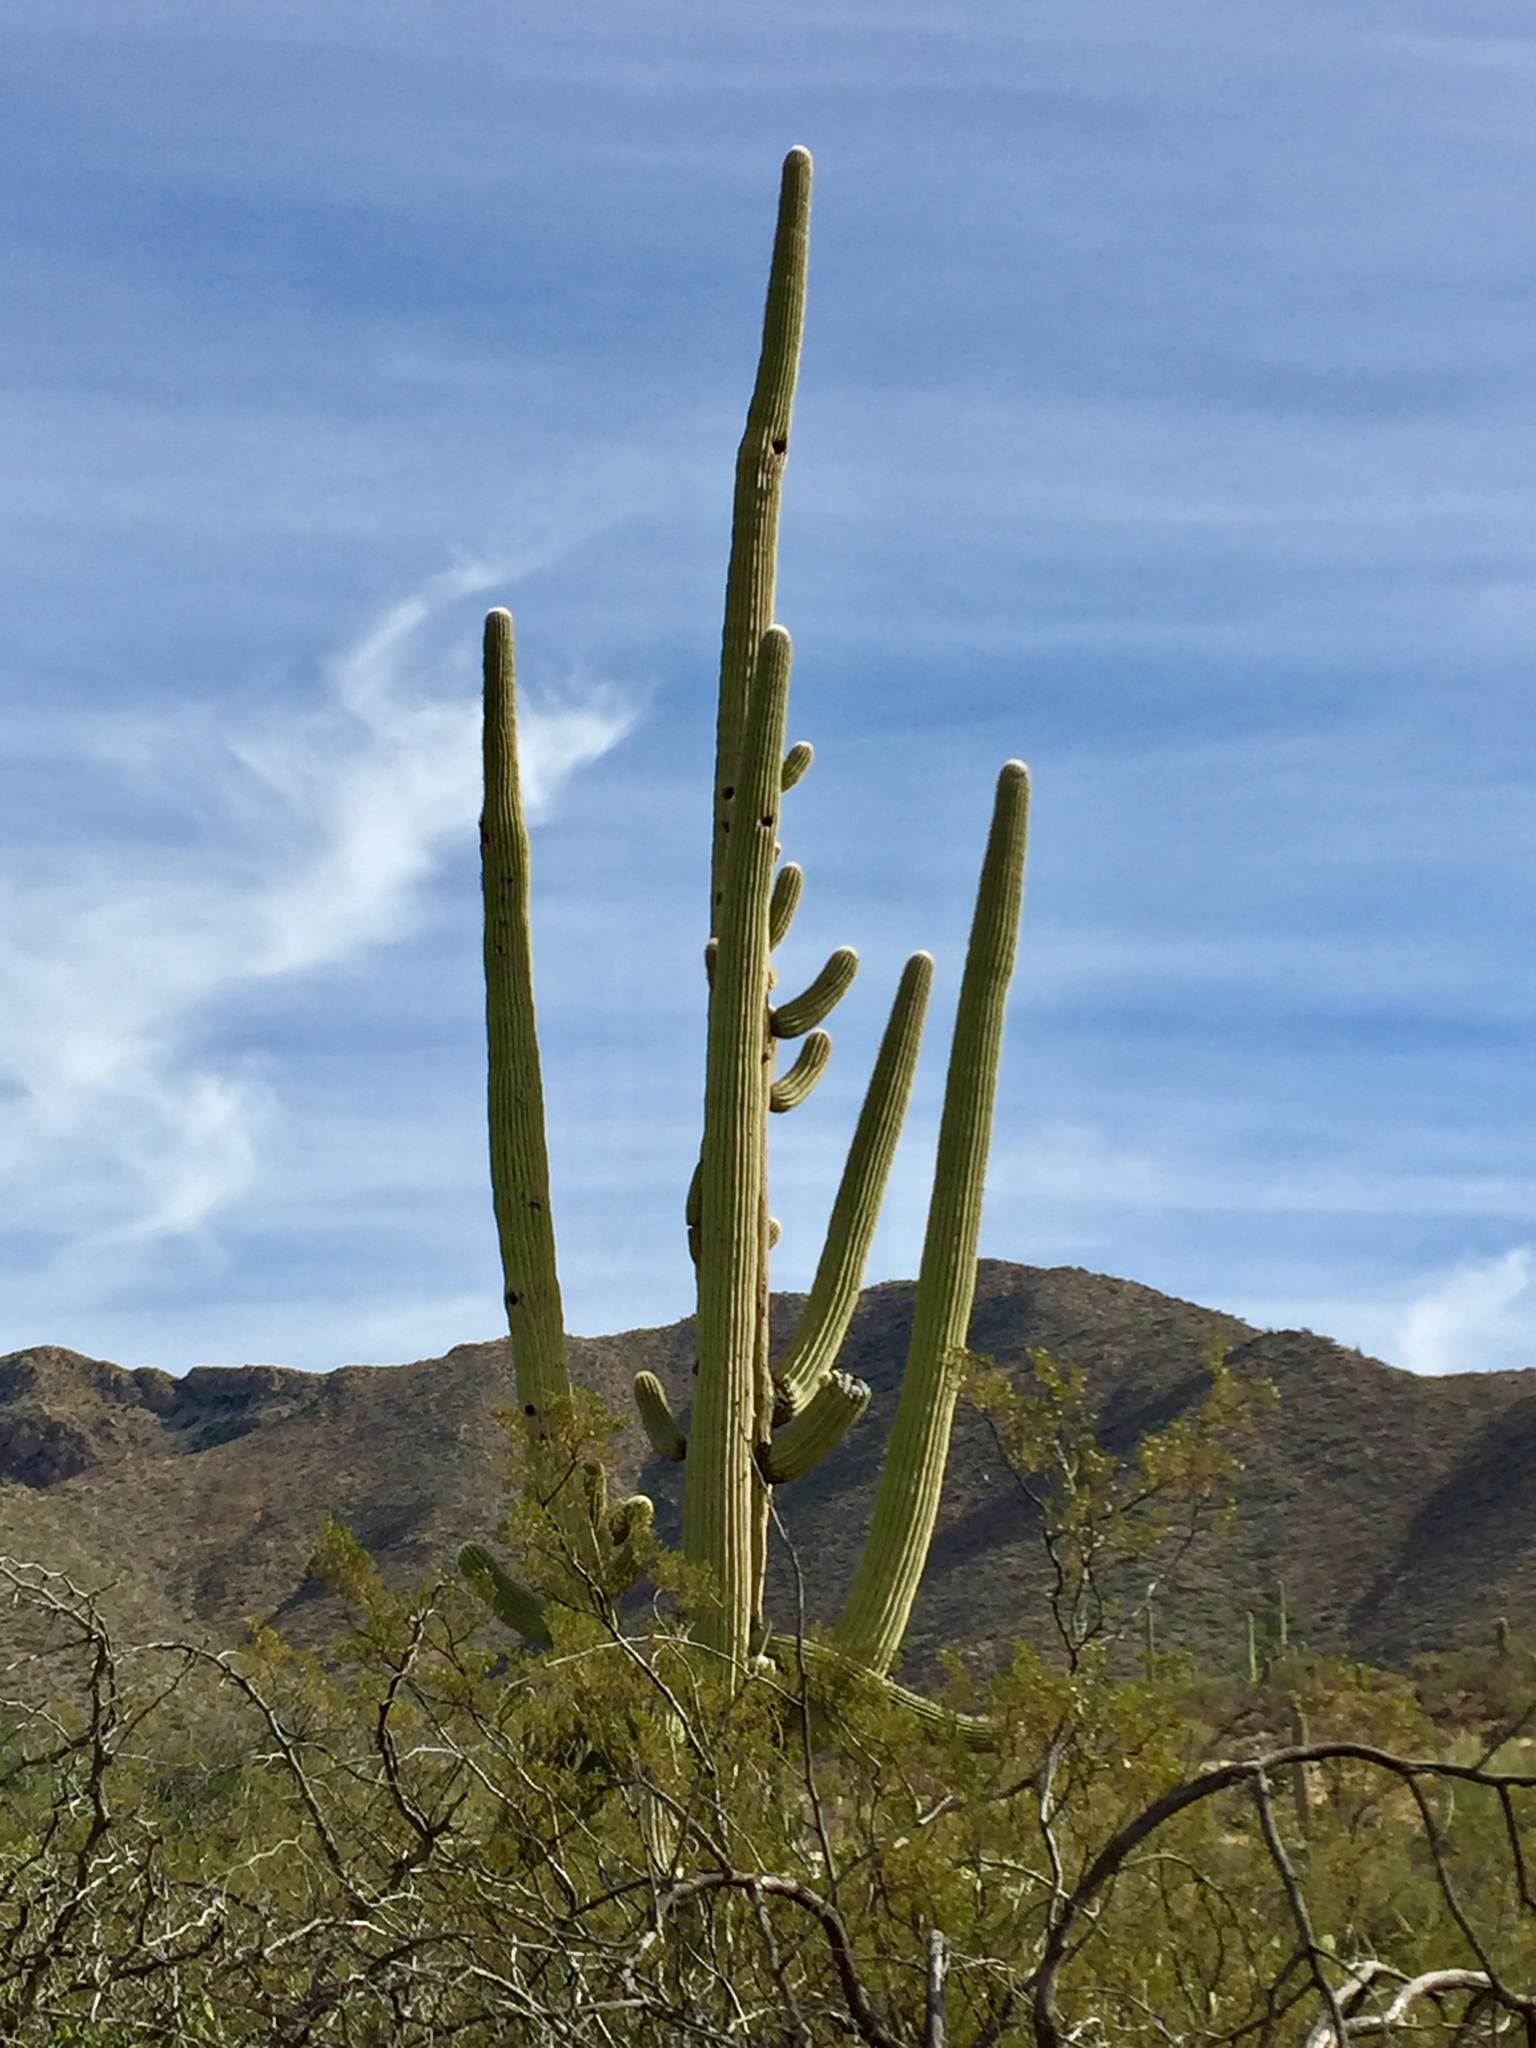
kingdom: Plantae
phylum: Tracheophyta
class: Magnoliopsida
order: Caryophyllales
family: Cactaceae
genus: Carnegiea
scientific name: Carnegiea gigantea
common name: Saguaro
